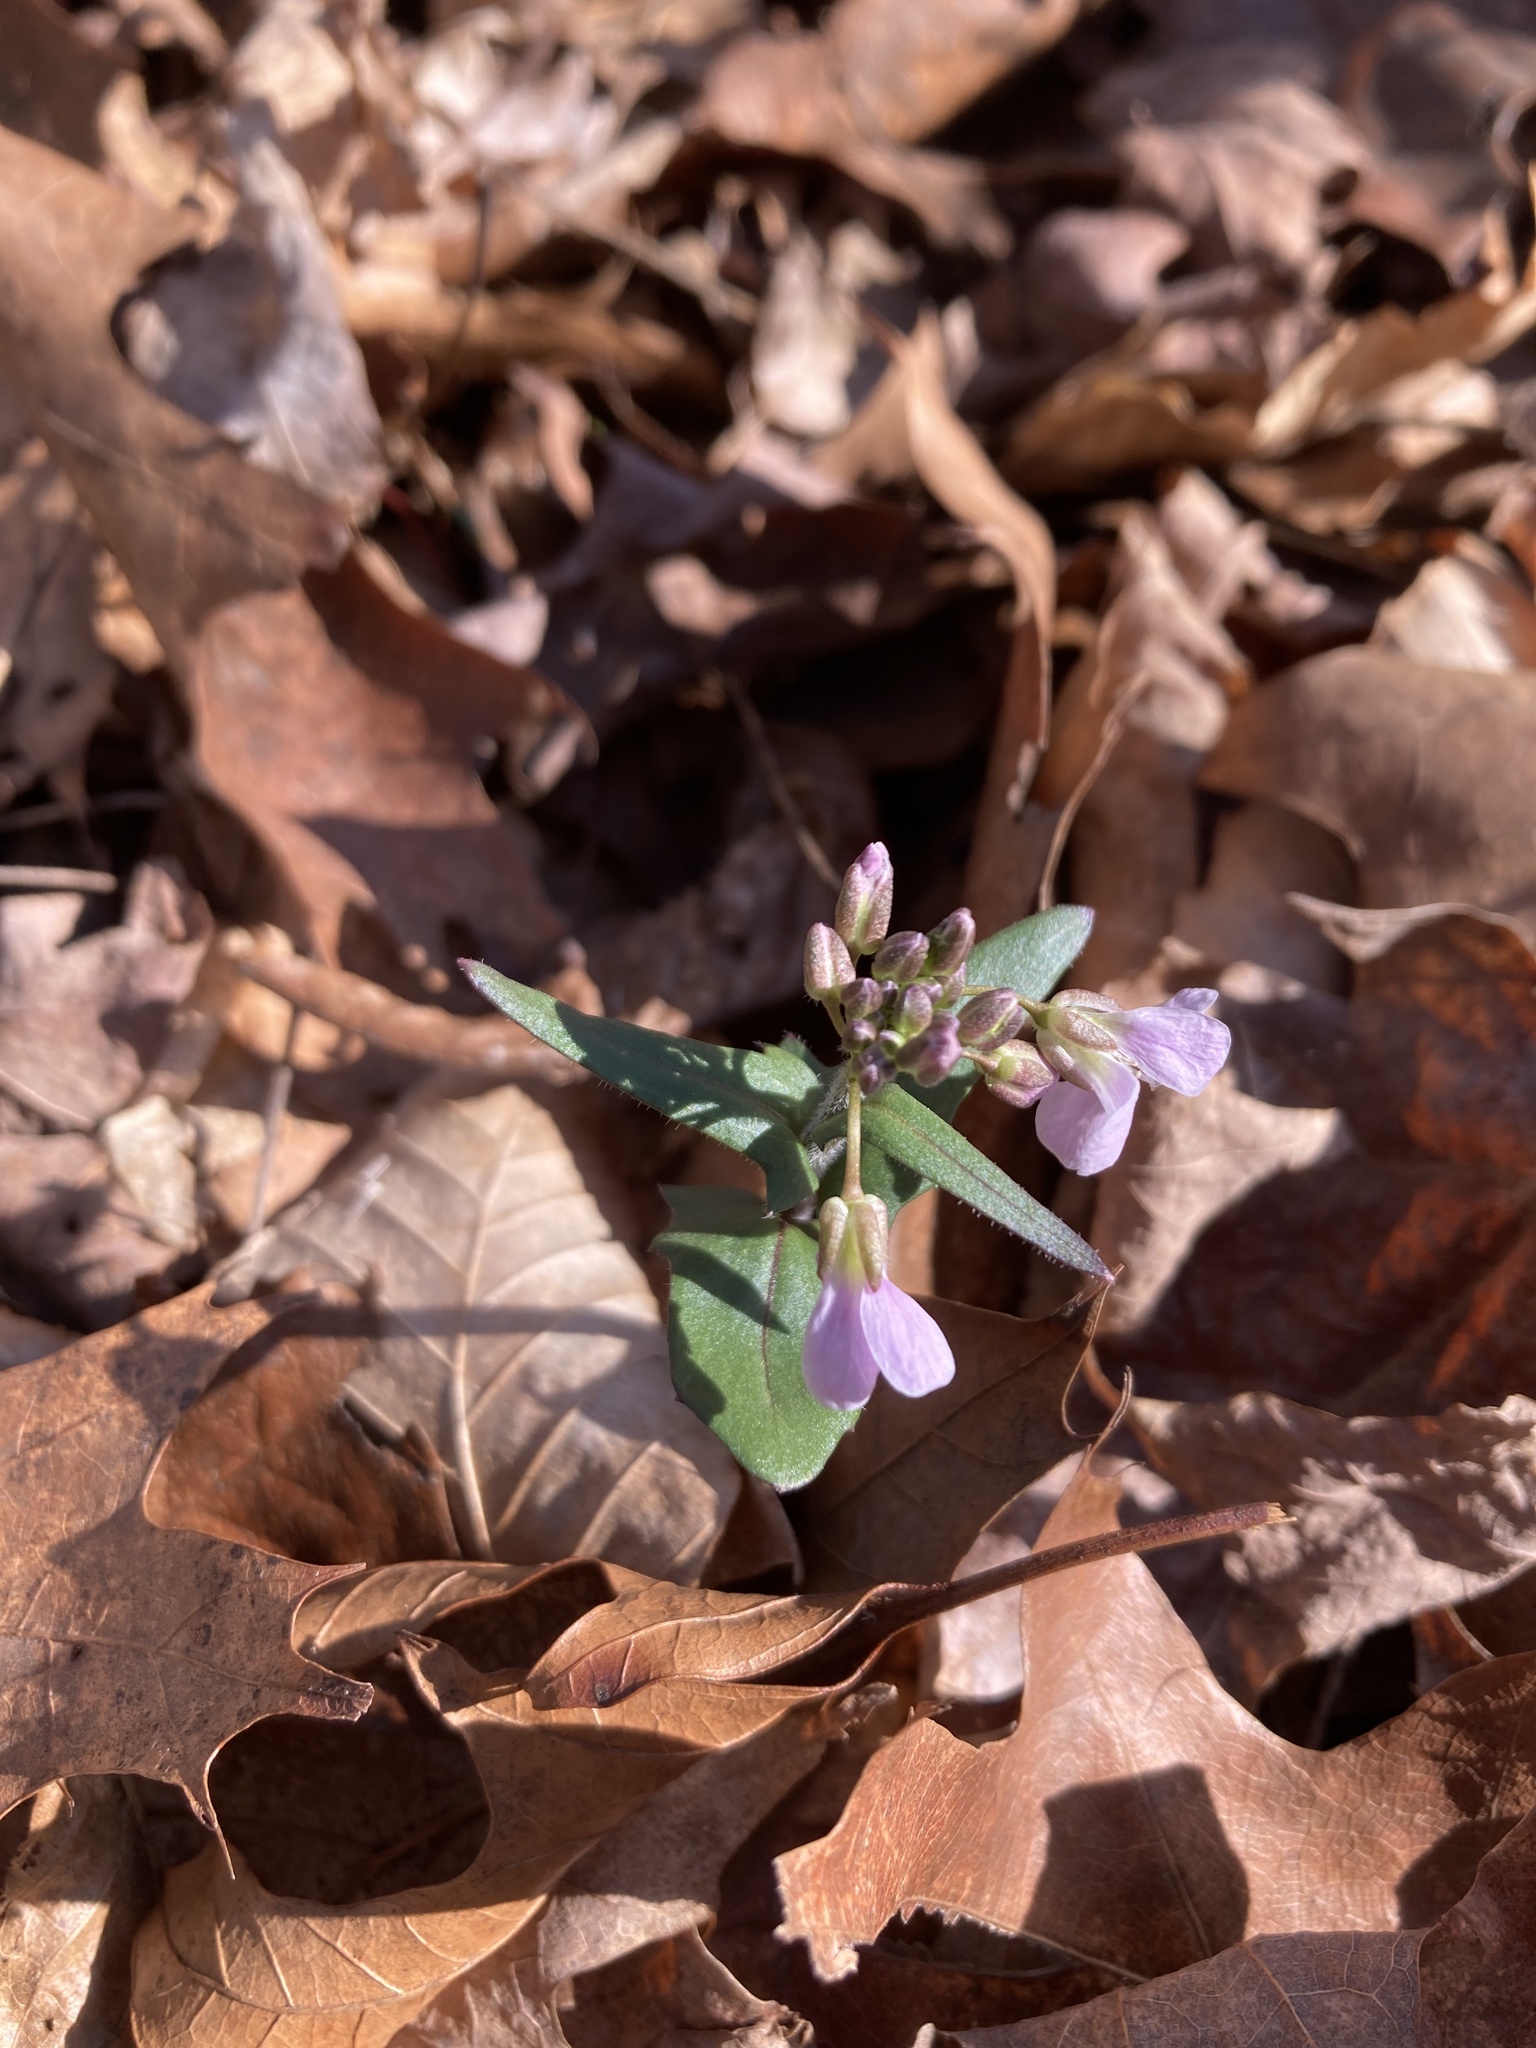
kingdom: Plantae
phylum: Tracheophyta
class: Magnoliopsida
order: Brassicales
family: Brassicaceae
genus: Cardamine
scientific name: Cardamine douglassii
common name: Purple cress
